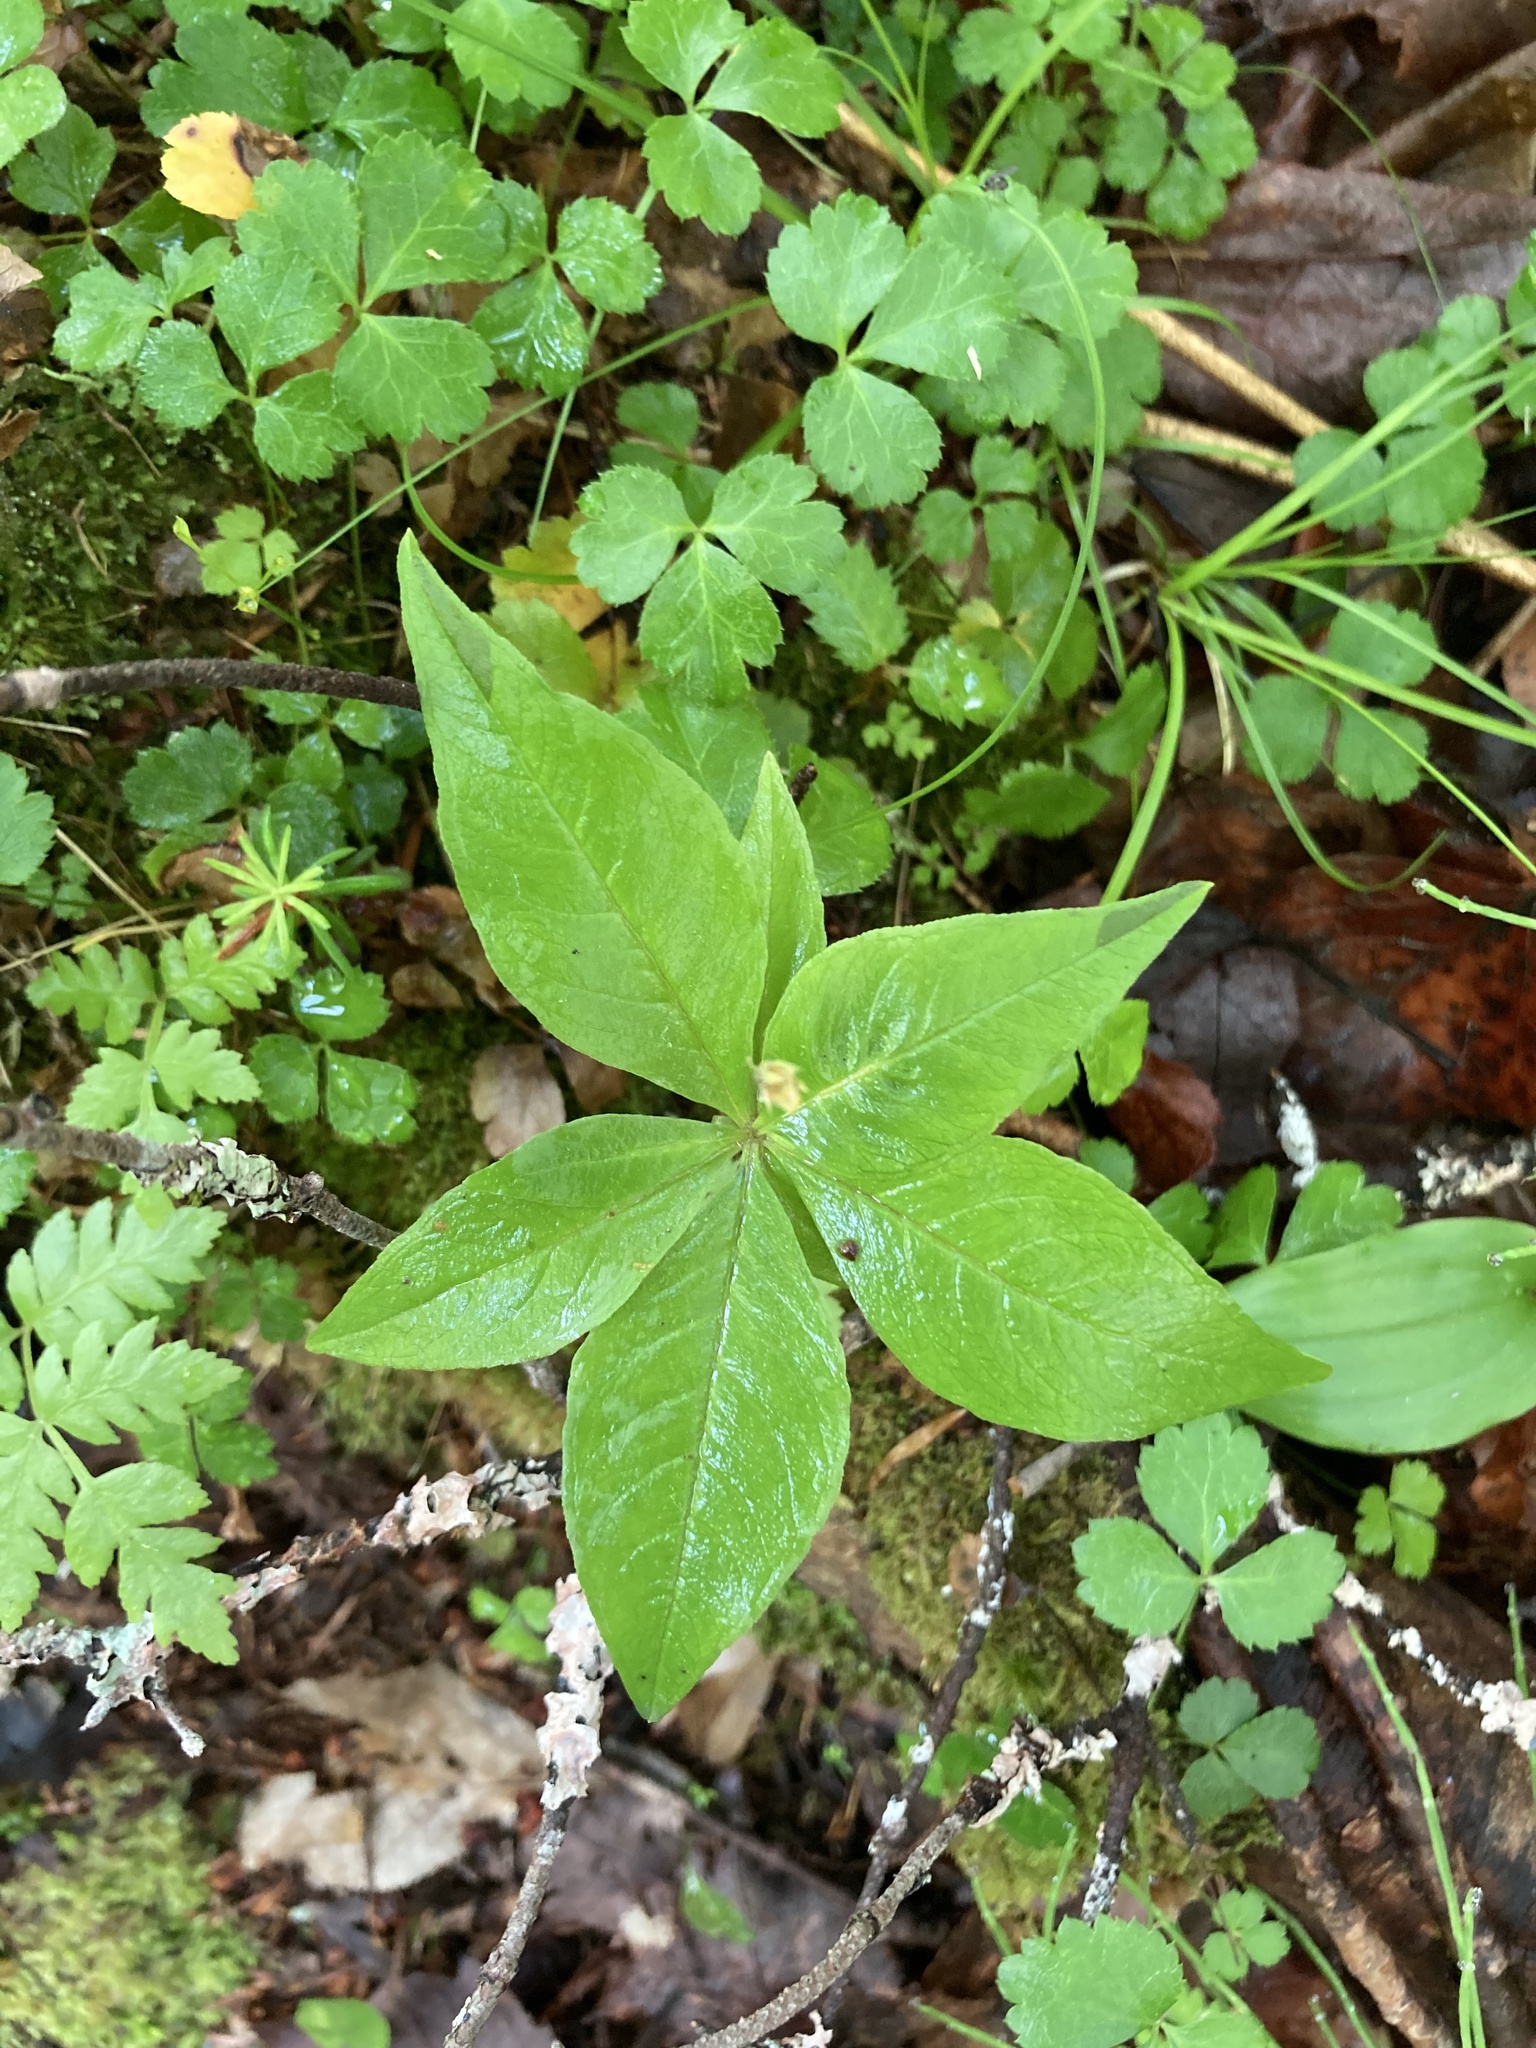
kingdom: Plantae
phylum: Tracheophyta
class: Magnoliopsida
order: Ericales
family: Primulaceae
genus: Lysimachia
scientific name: Lysimachia borealis
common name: American starflower
